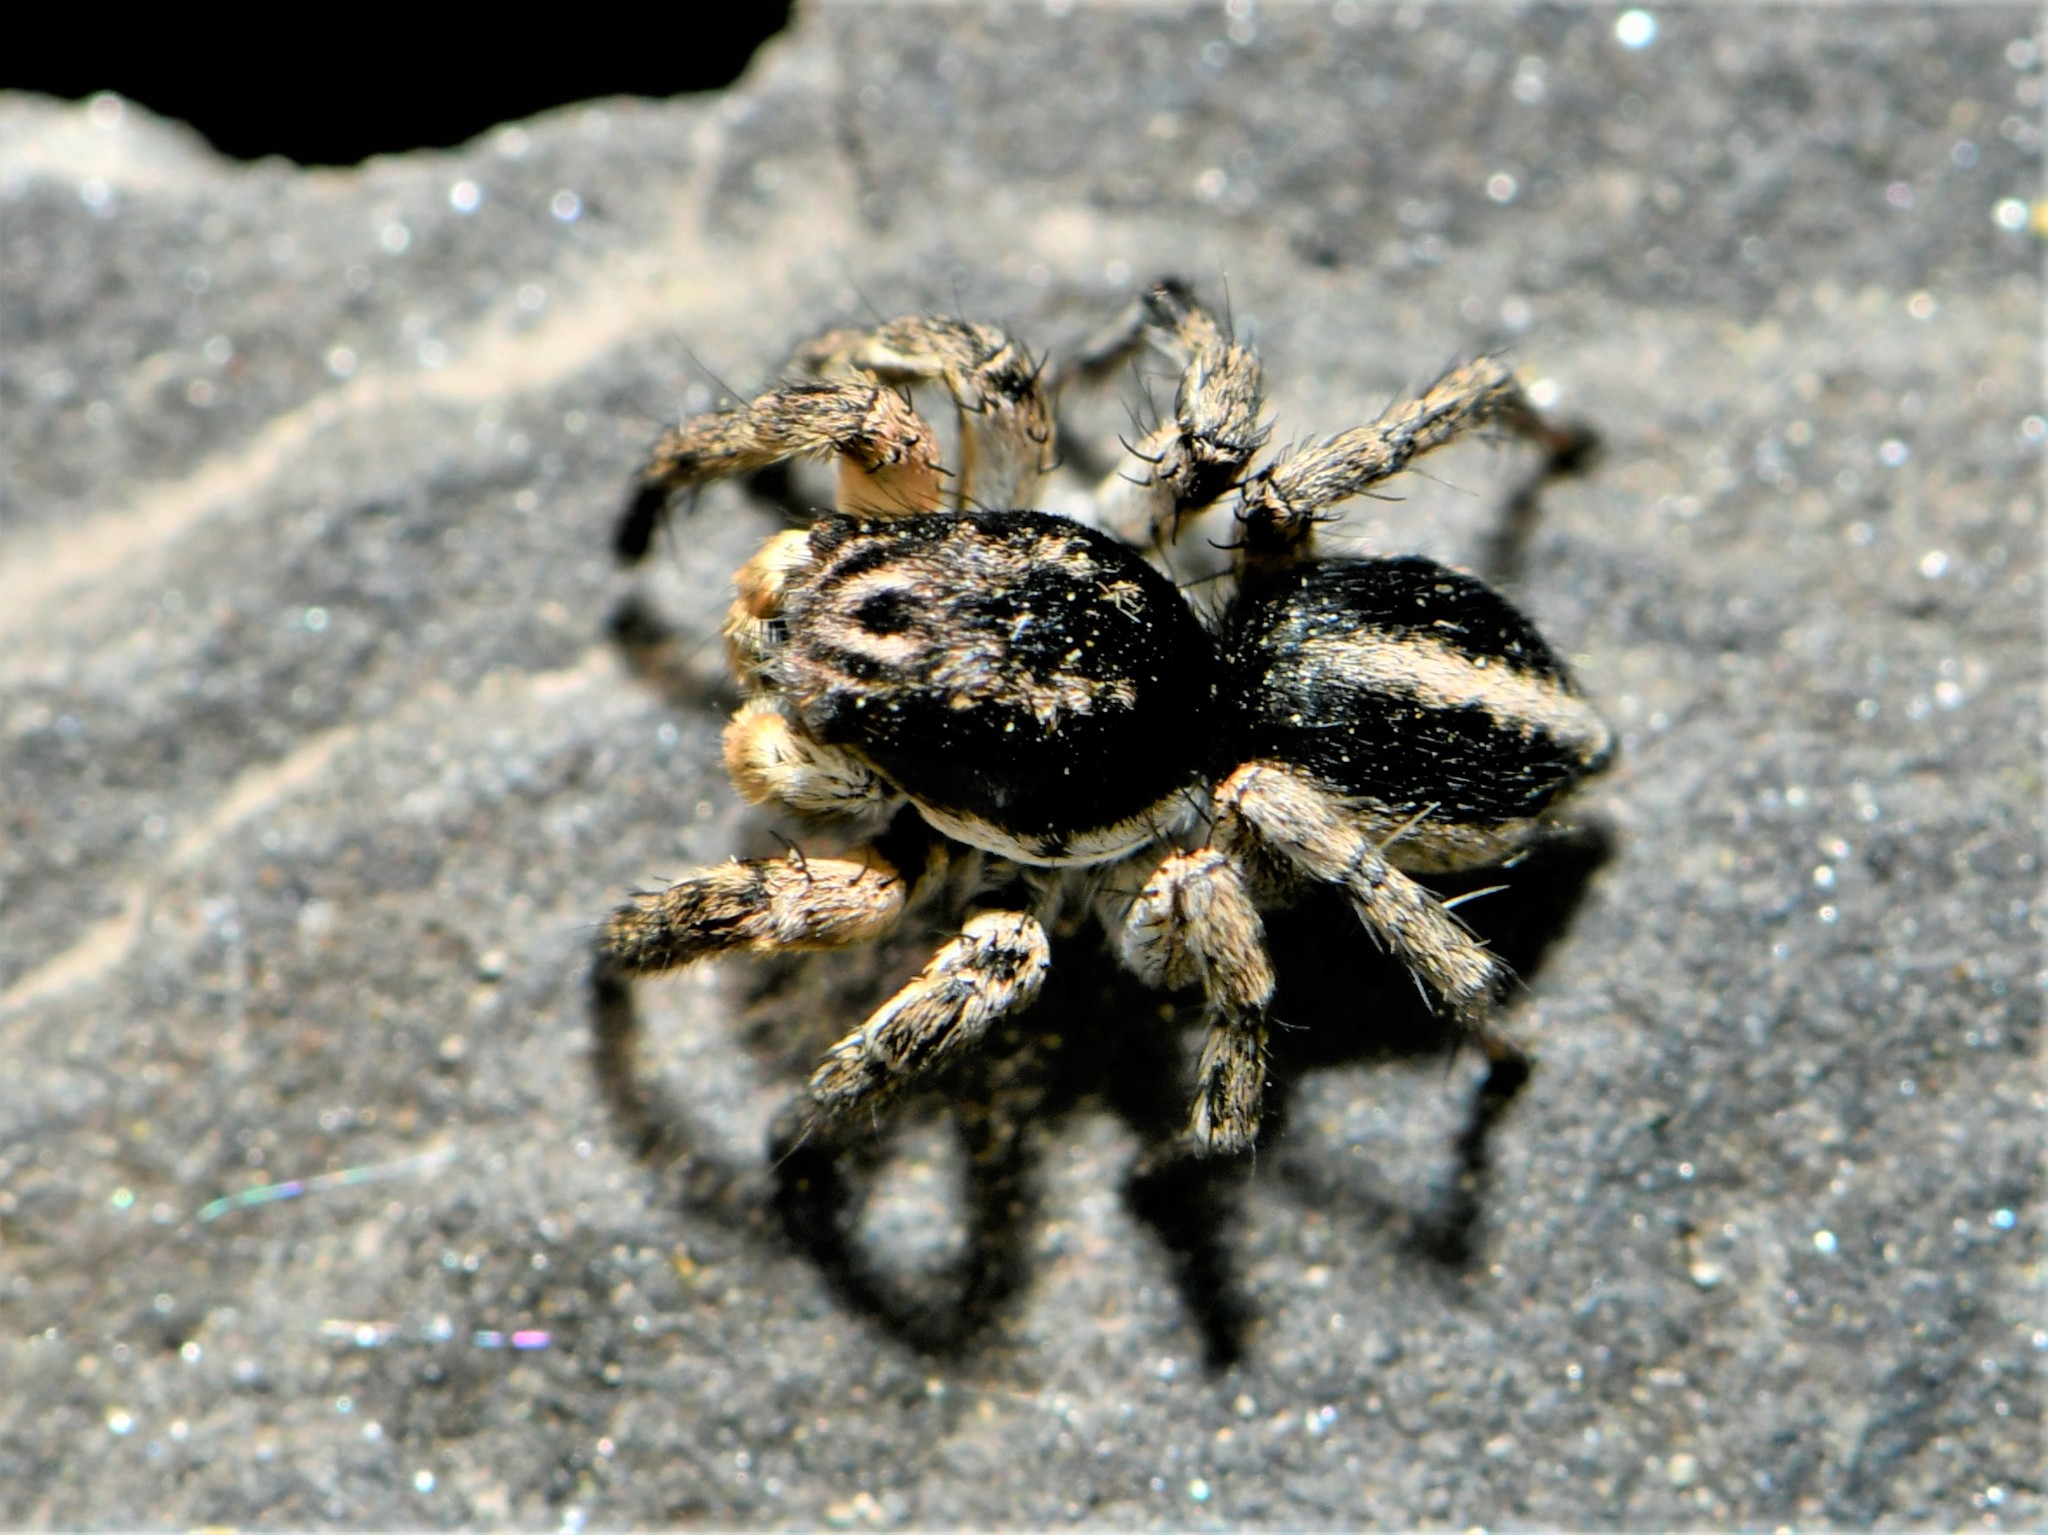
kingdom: Animalia
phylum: Arthropoda
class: Arachnida
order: Araneae
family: Salticidae
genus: Aelurillus
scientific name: Aelurillus v-insignitus
